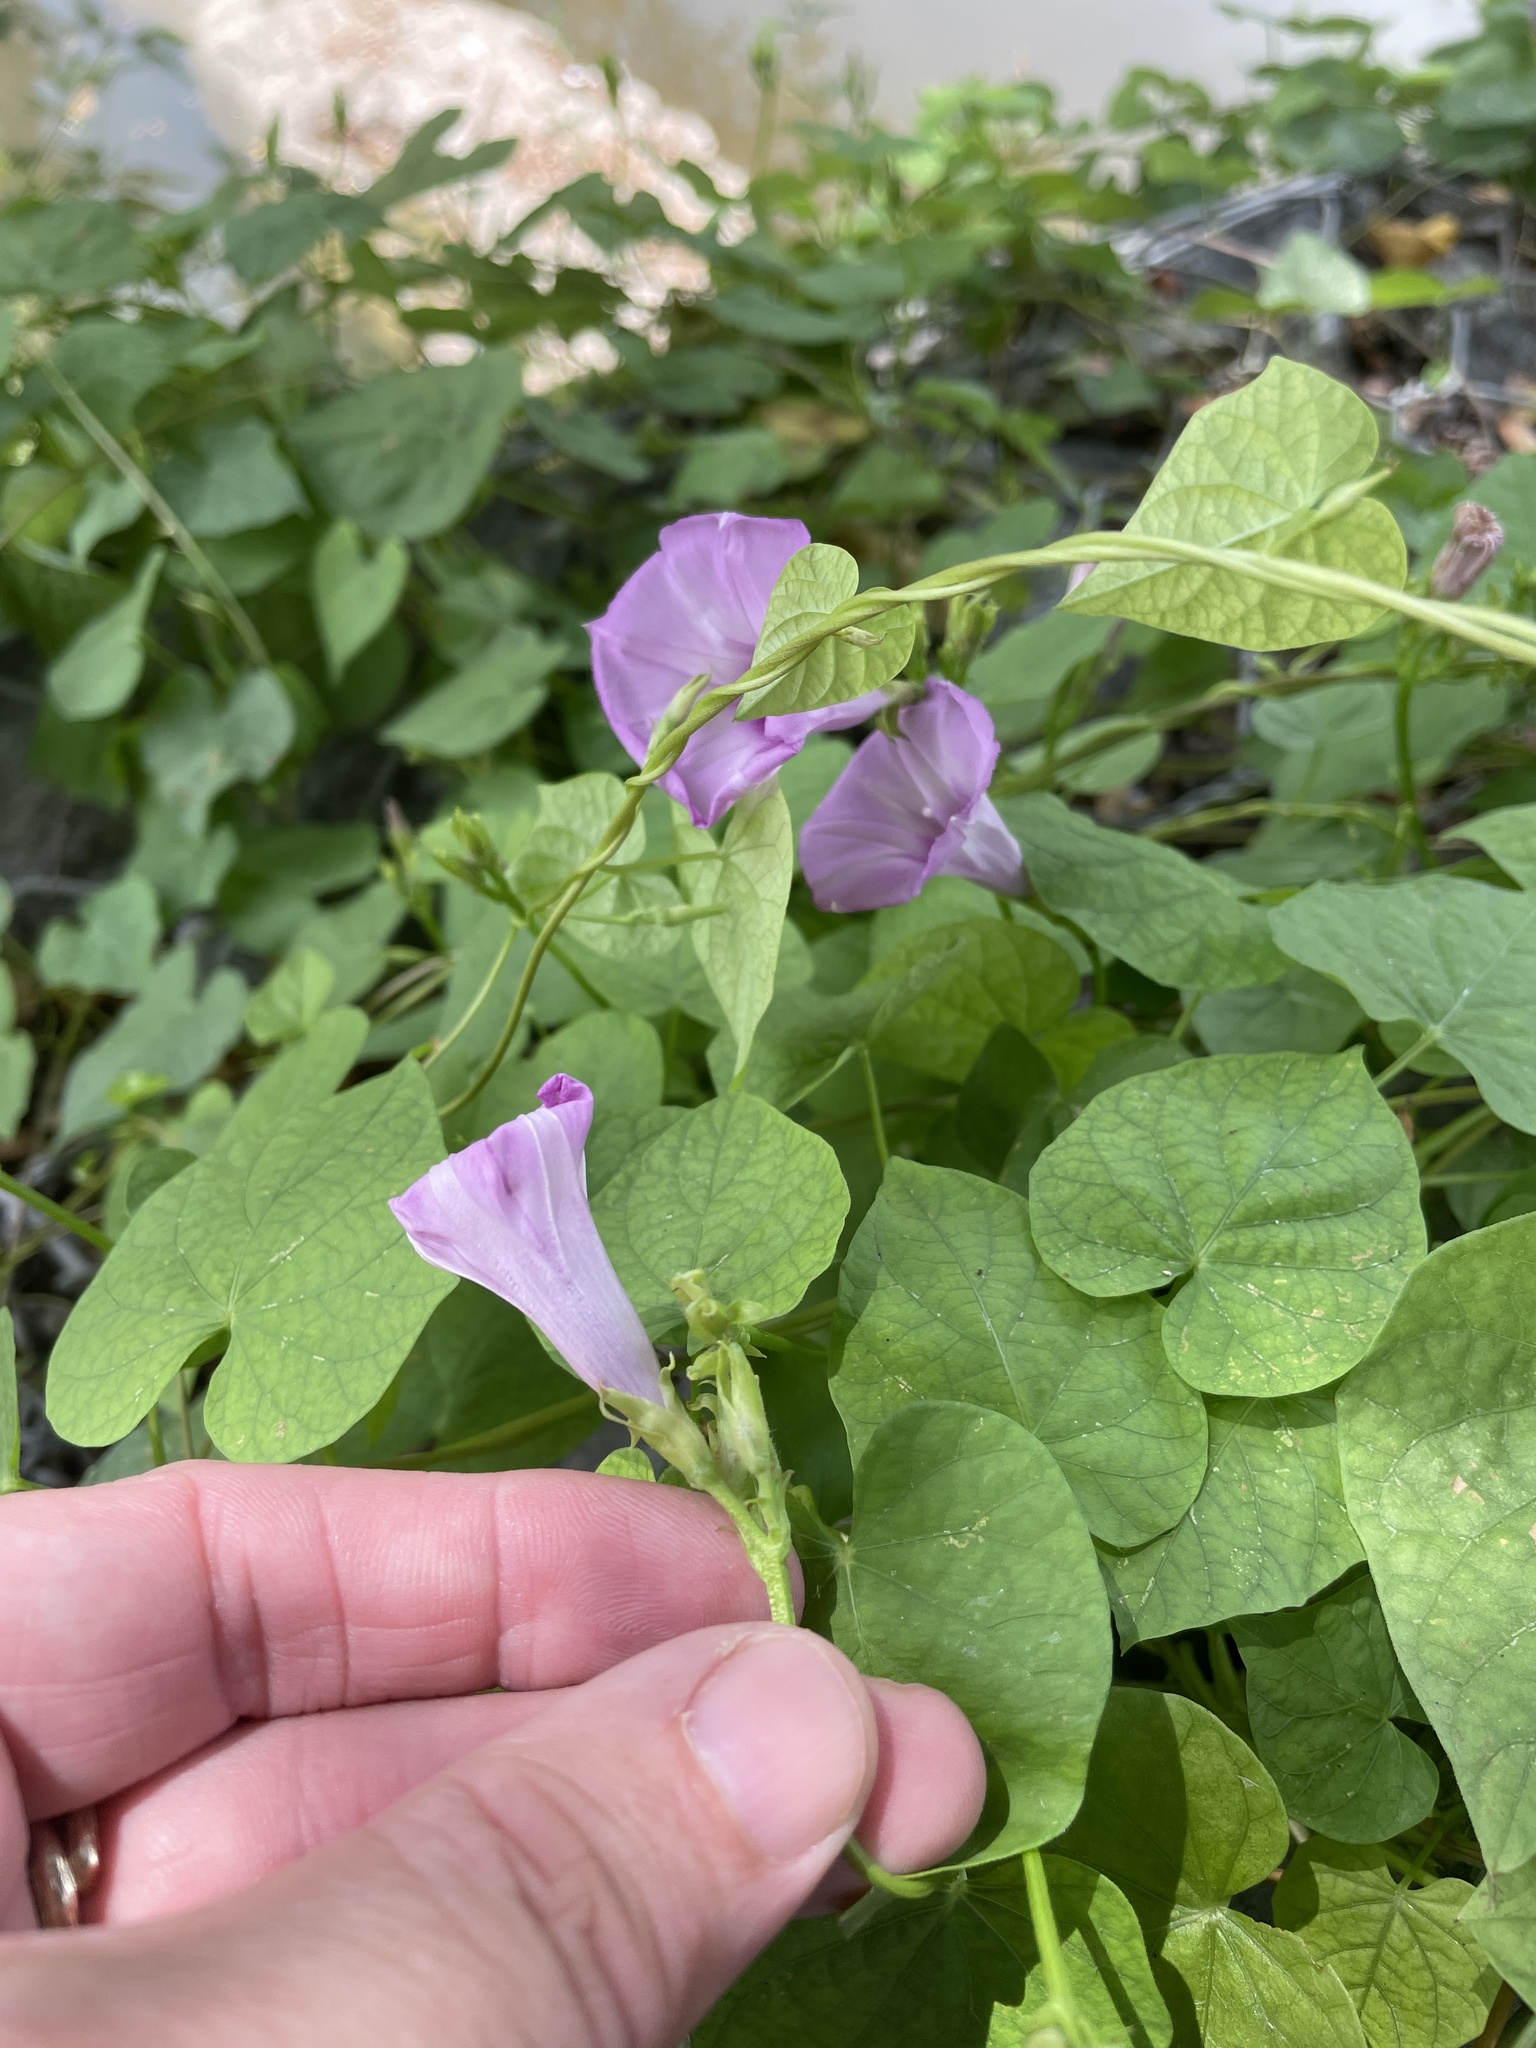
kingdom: Plantae
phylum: Tracheophyta
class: Magnoliopsida
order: Solanales
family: Convolvulaceae
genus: Ipomoea
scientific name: Ipomoea cordatotriloba
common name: Cotton morning glory
